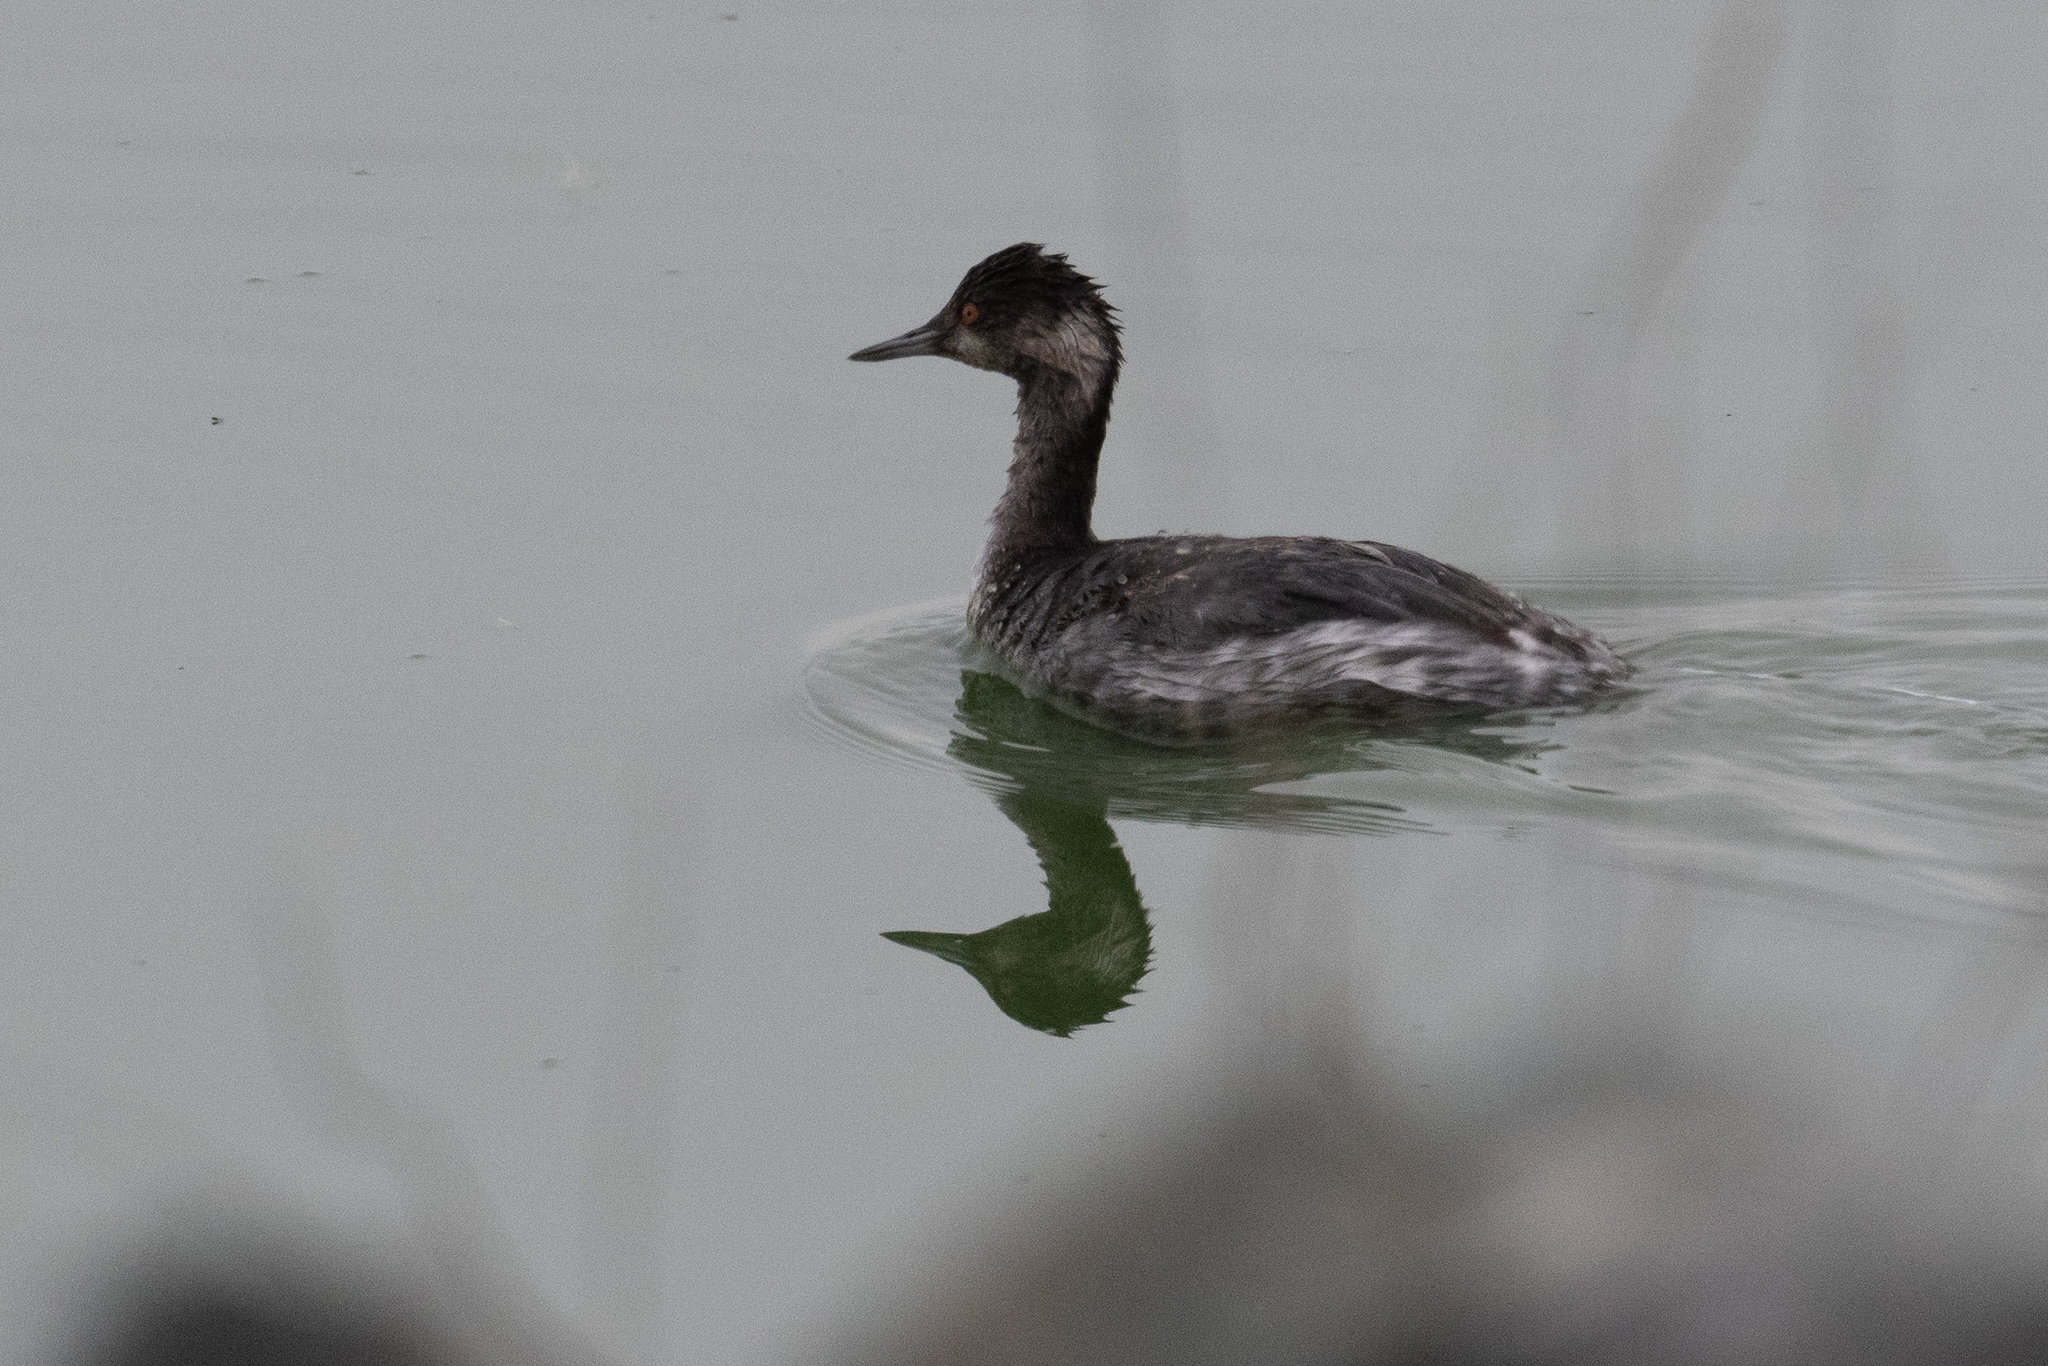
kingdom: Animalia
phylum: Chordata
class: Aves
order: Podicipediformes
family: Podicipedidae
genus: Podiceps
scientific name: Podiceps nigricollis
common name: Black-necked grebe
